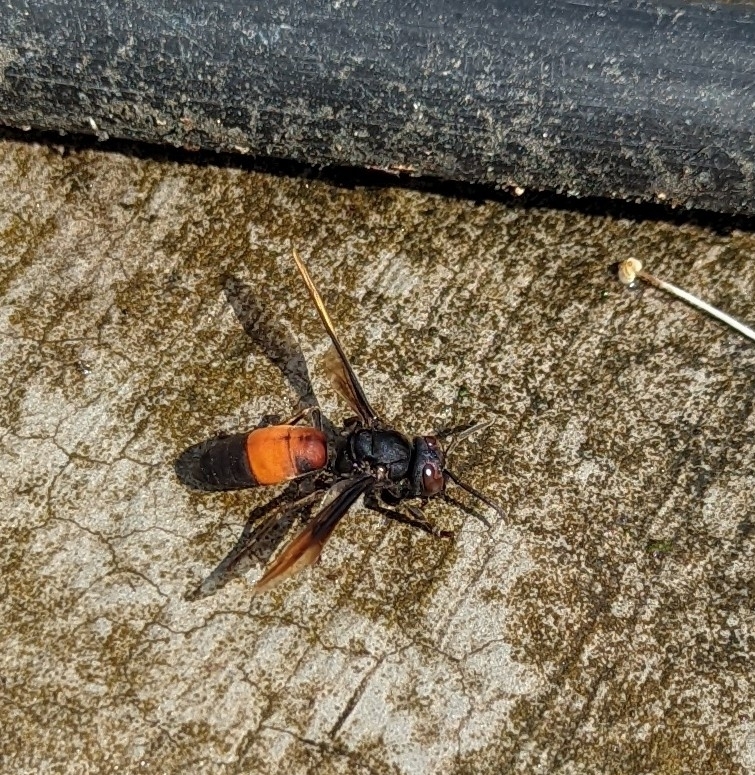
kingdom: Animalia
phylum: Arthropoda
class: Insecta
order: Hymenoptera
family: Vespidae
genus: Vespa
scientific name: Vespa affinis
